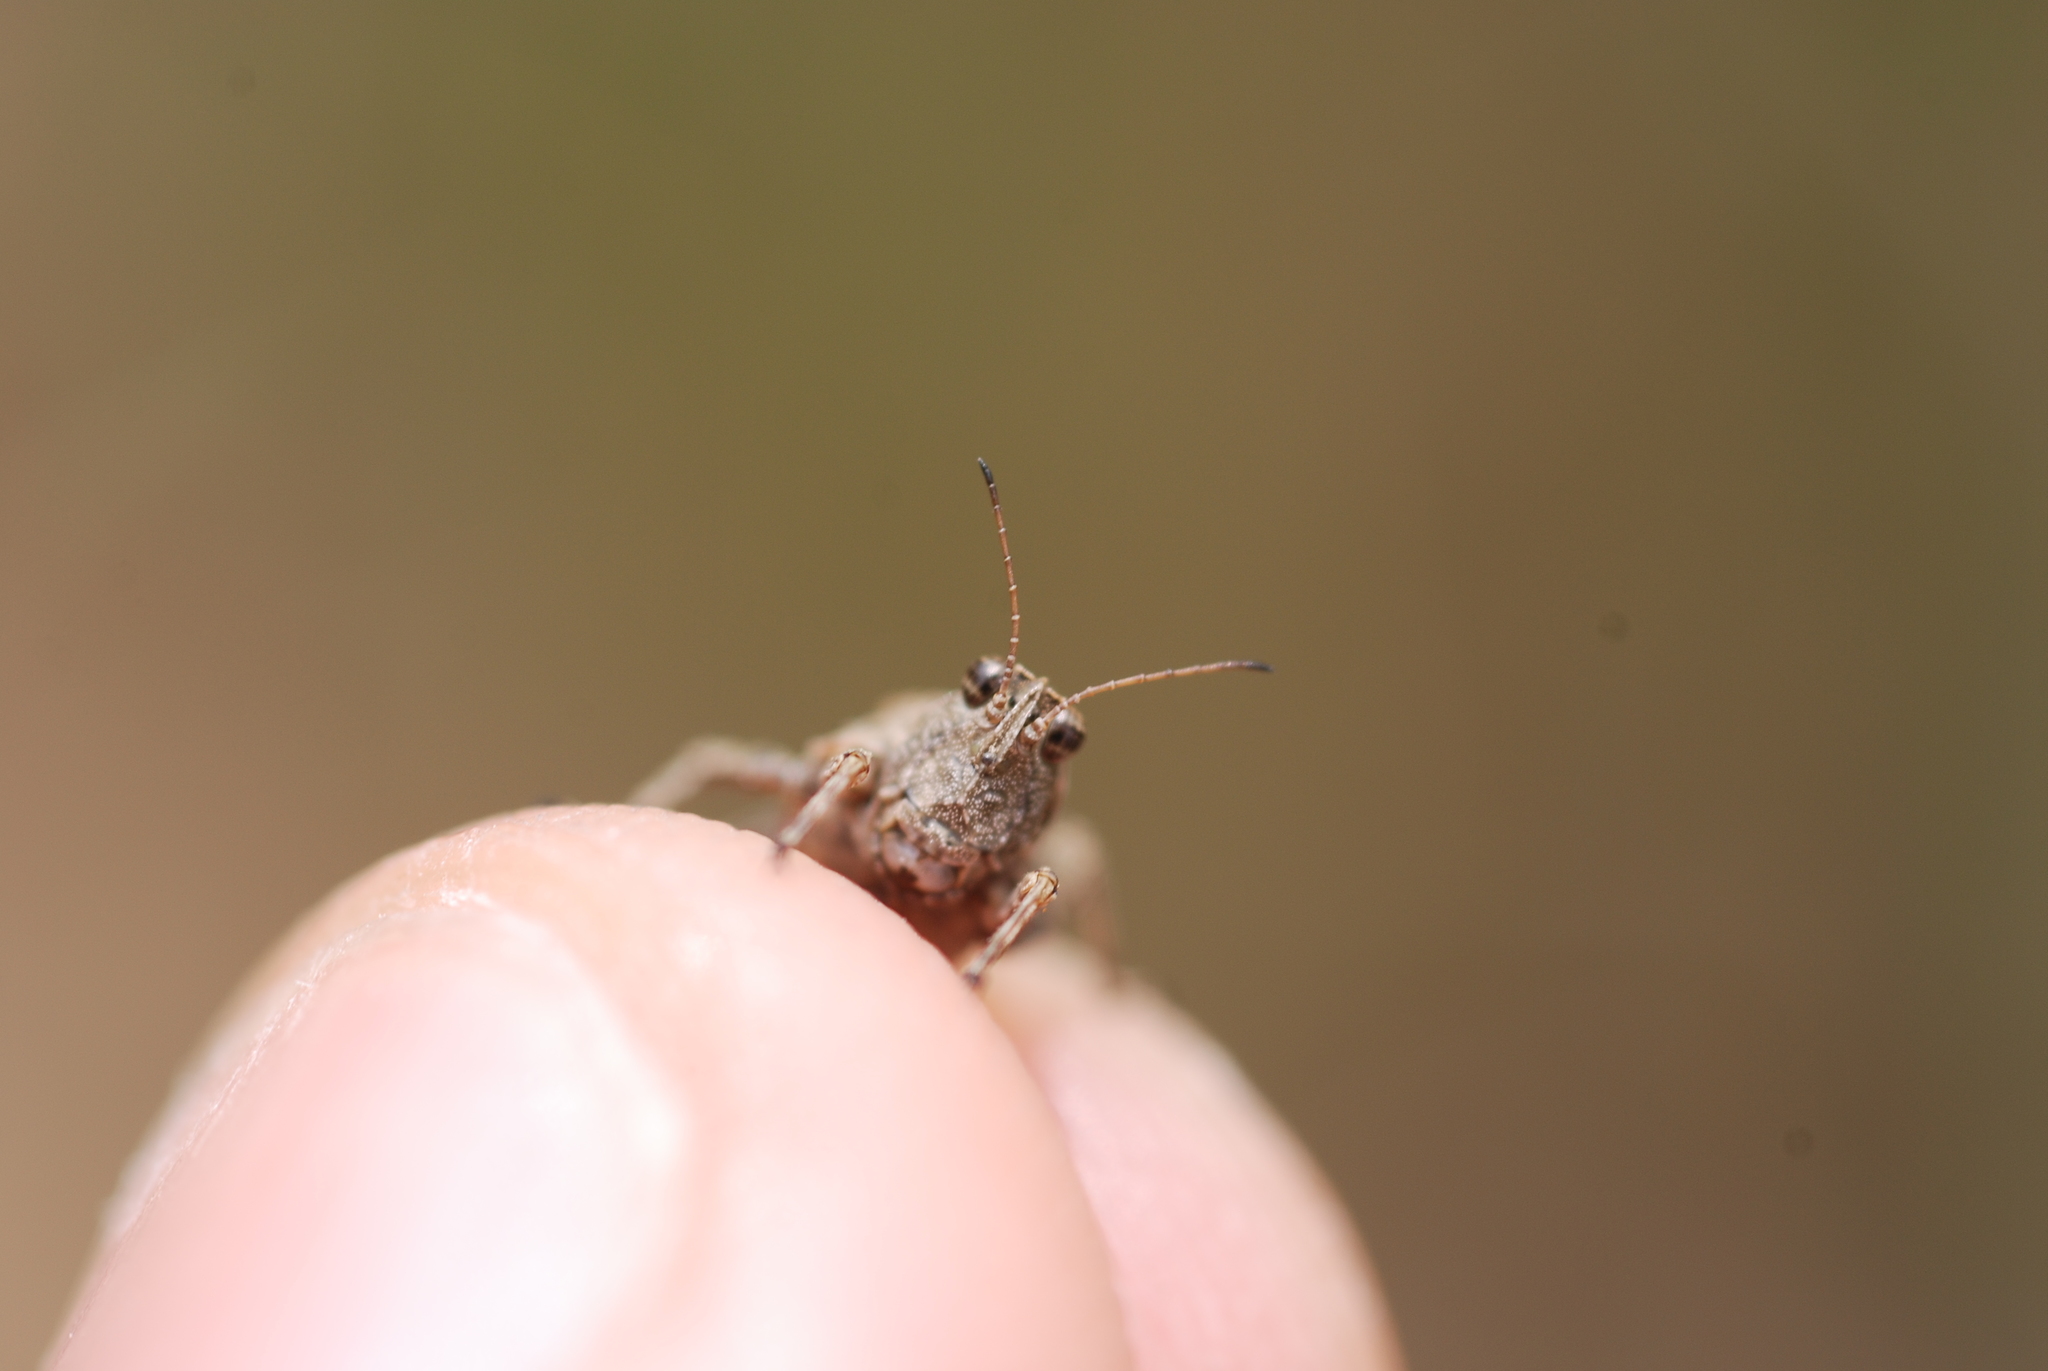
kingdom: Animalia
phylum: Arthropoda
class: Insecta
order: Orthoptera
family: Tetrigidae
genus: Tetrix
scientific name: Tetrix tenuicornis
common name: Long-horned groundhopper
